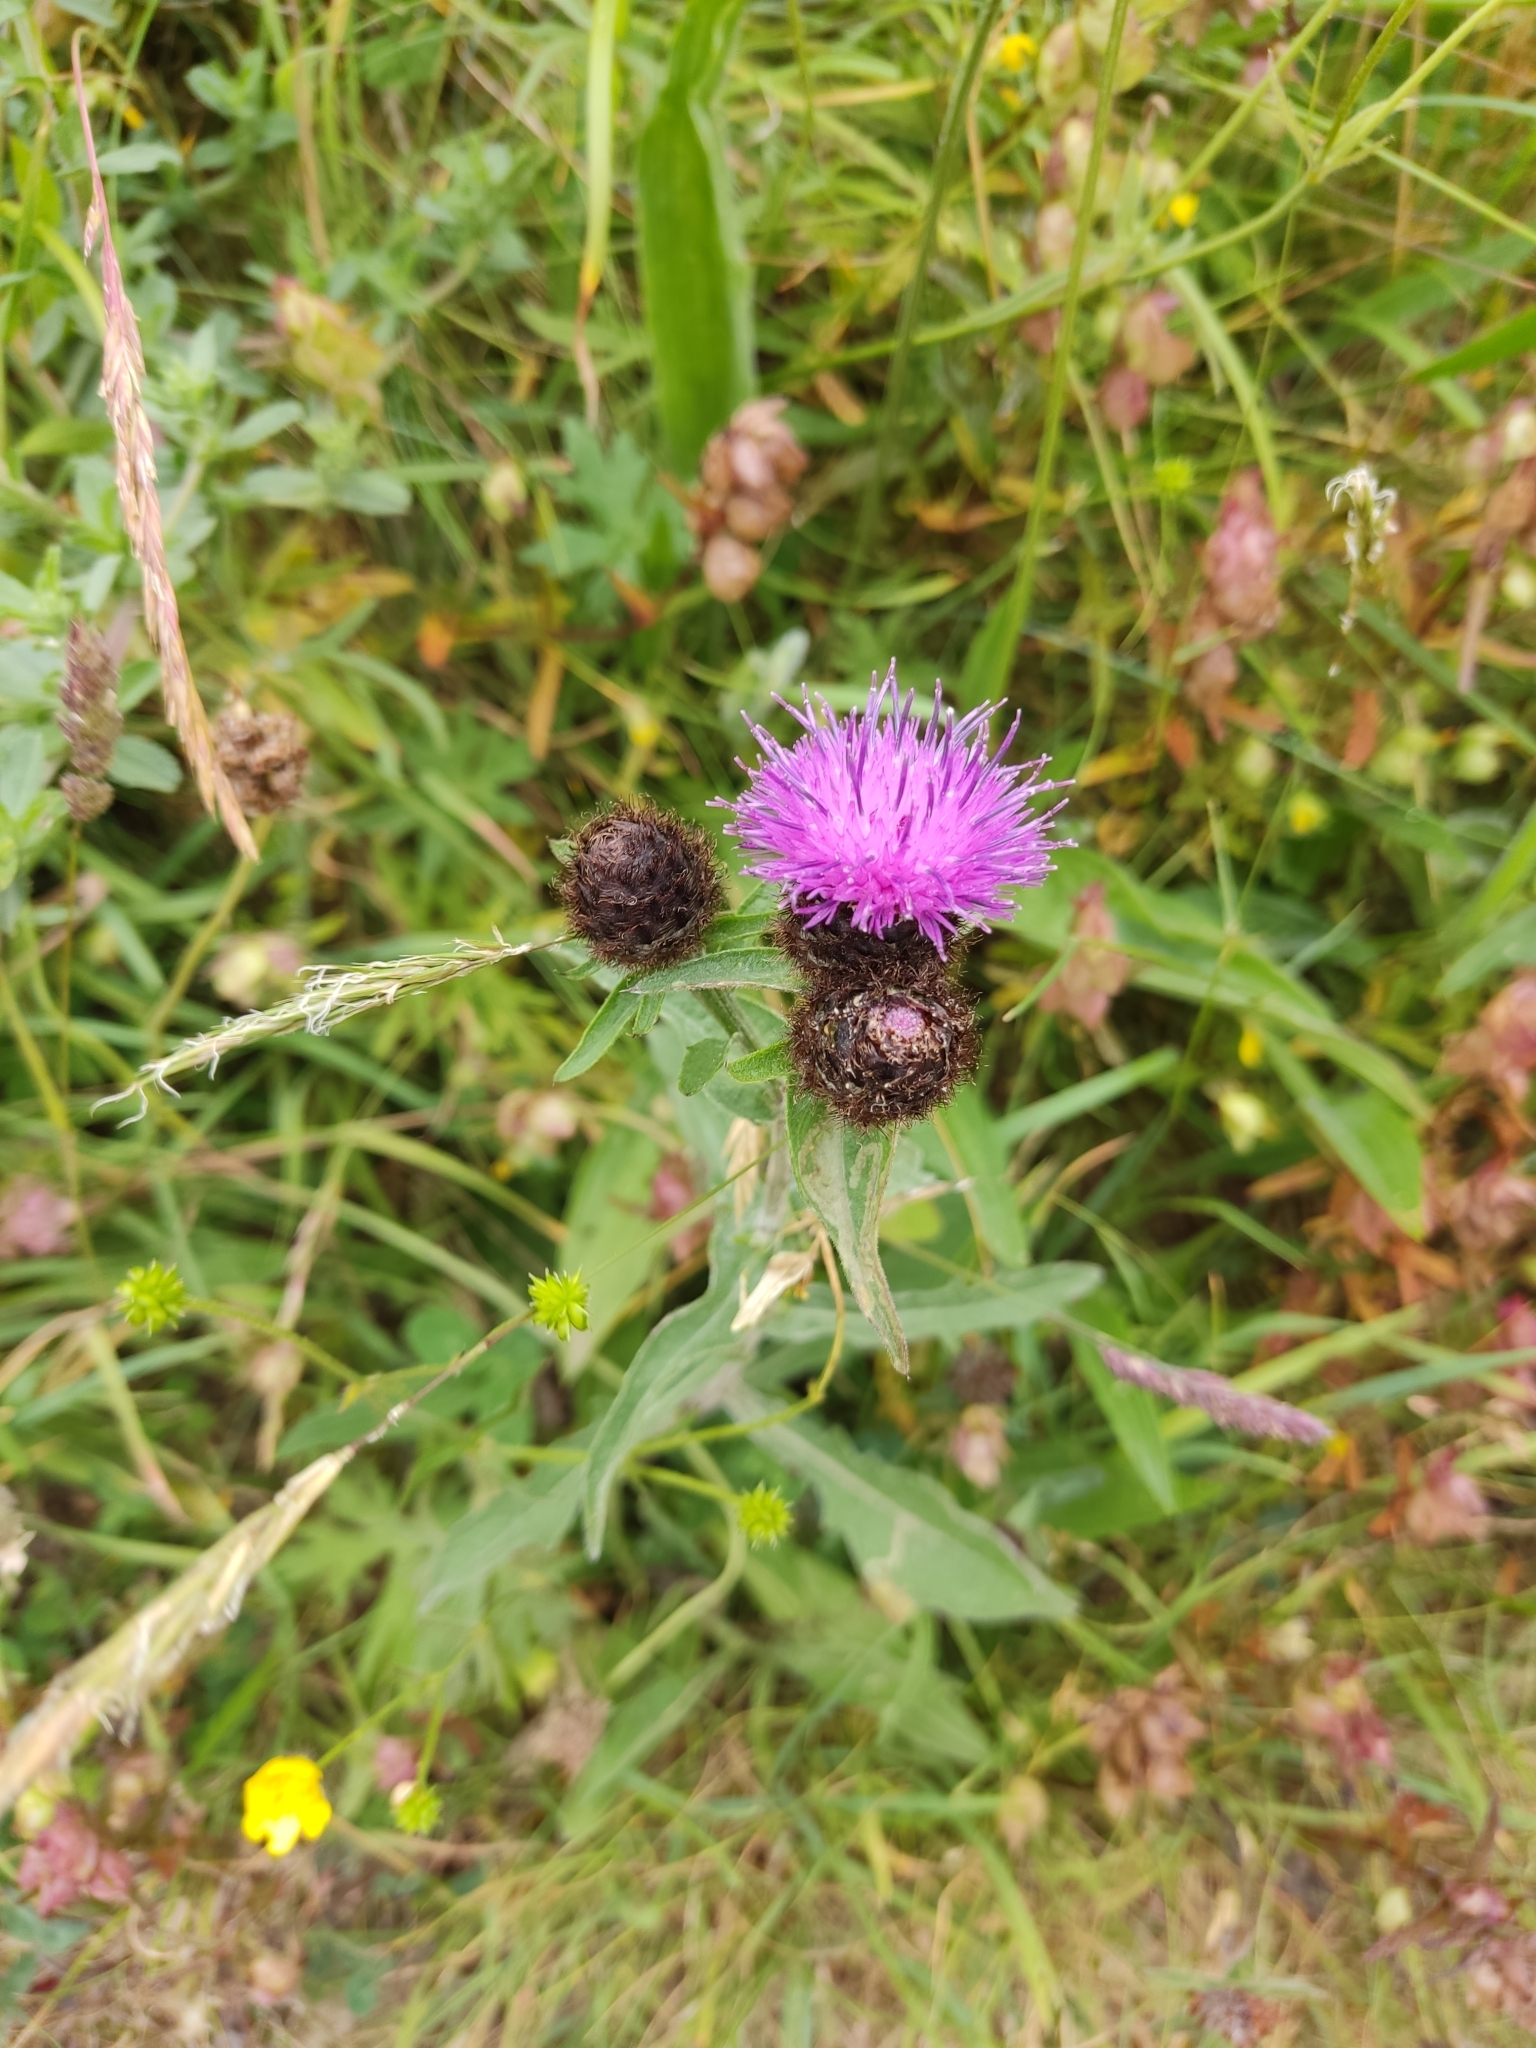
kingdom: Plantae
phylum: Tracheophyta
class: Magnoliopsida
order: Asterales
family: Asteraceae
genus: Centaurea
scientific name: Centaurea nigra
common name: Lesser knapweed
